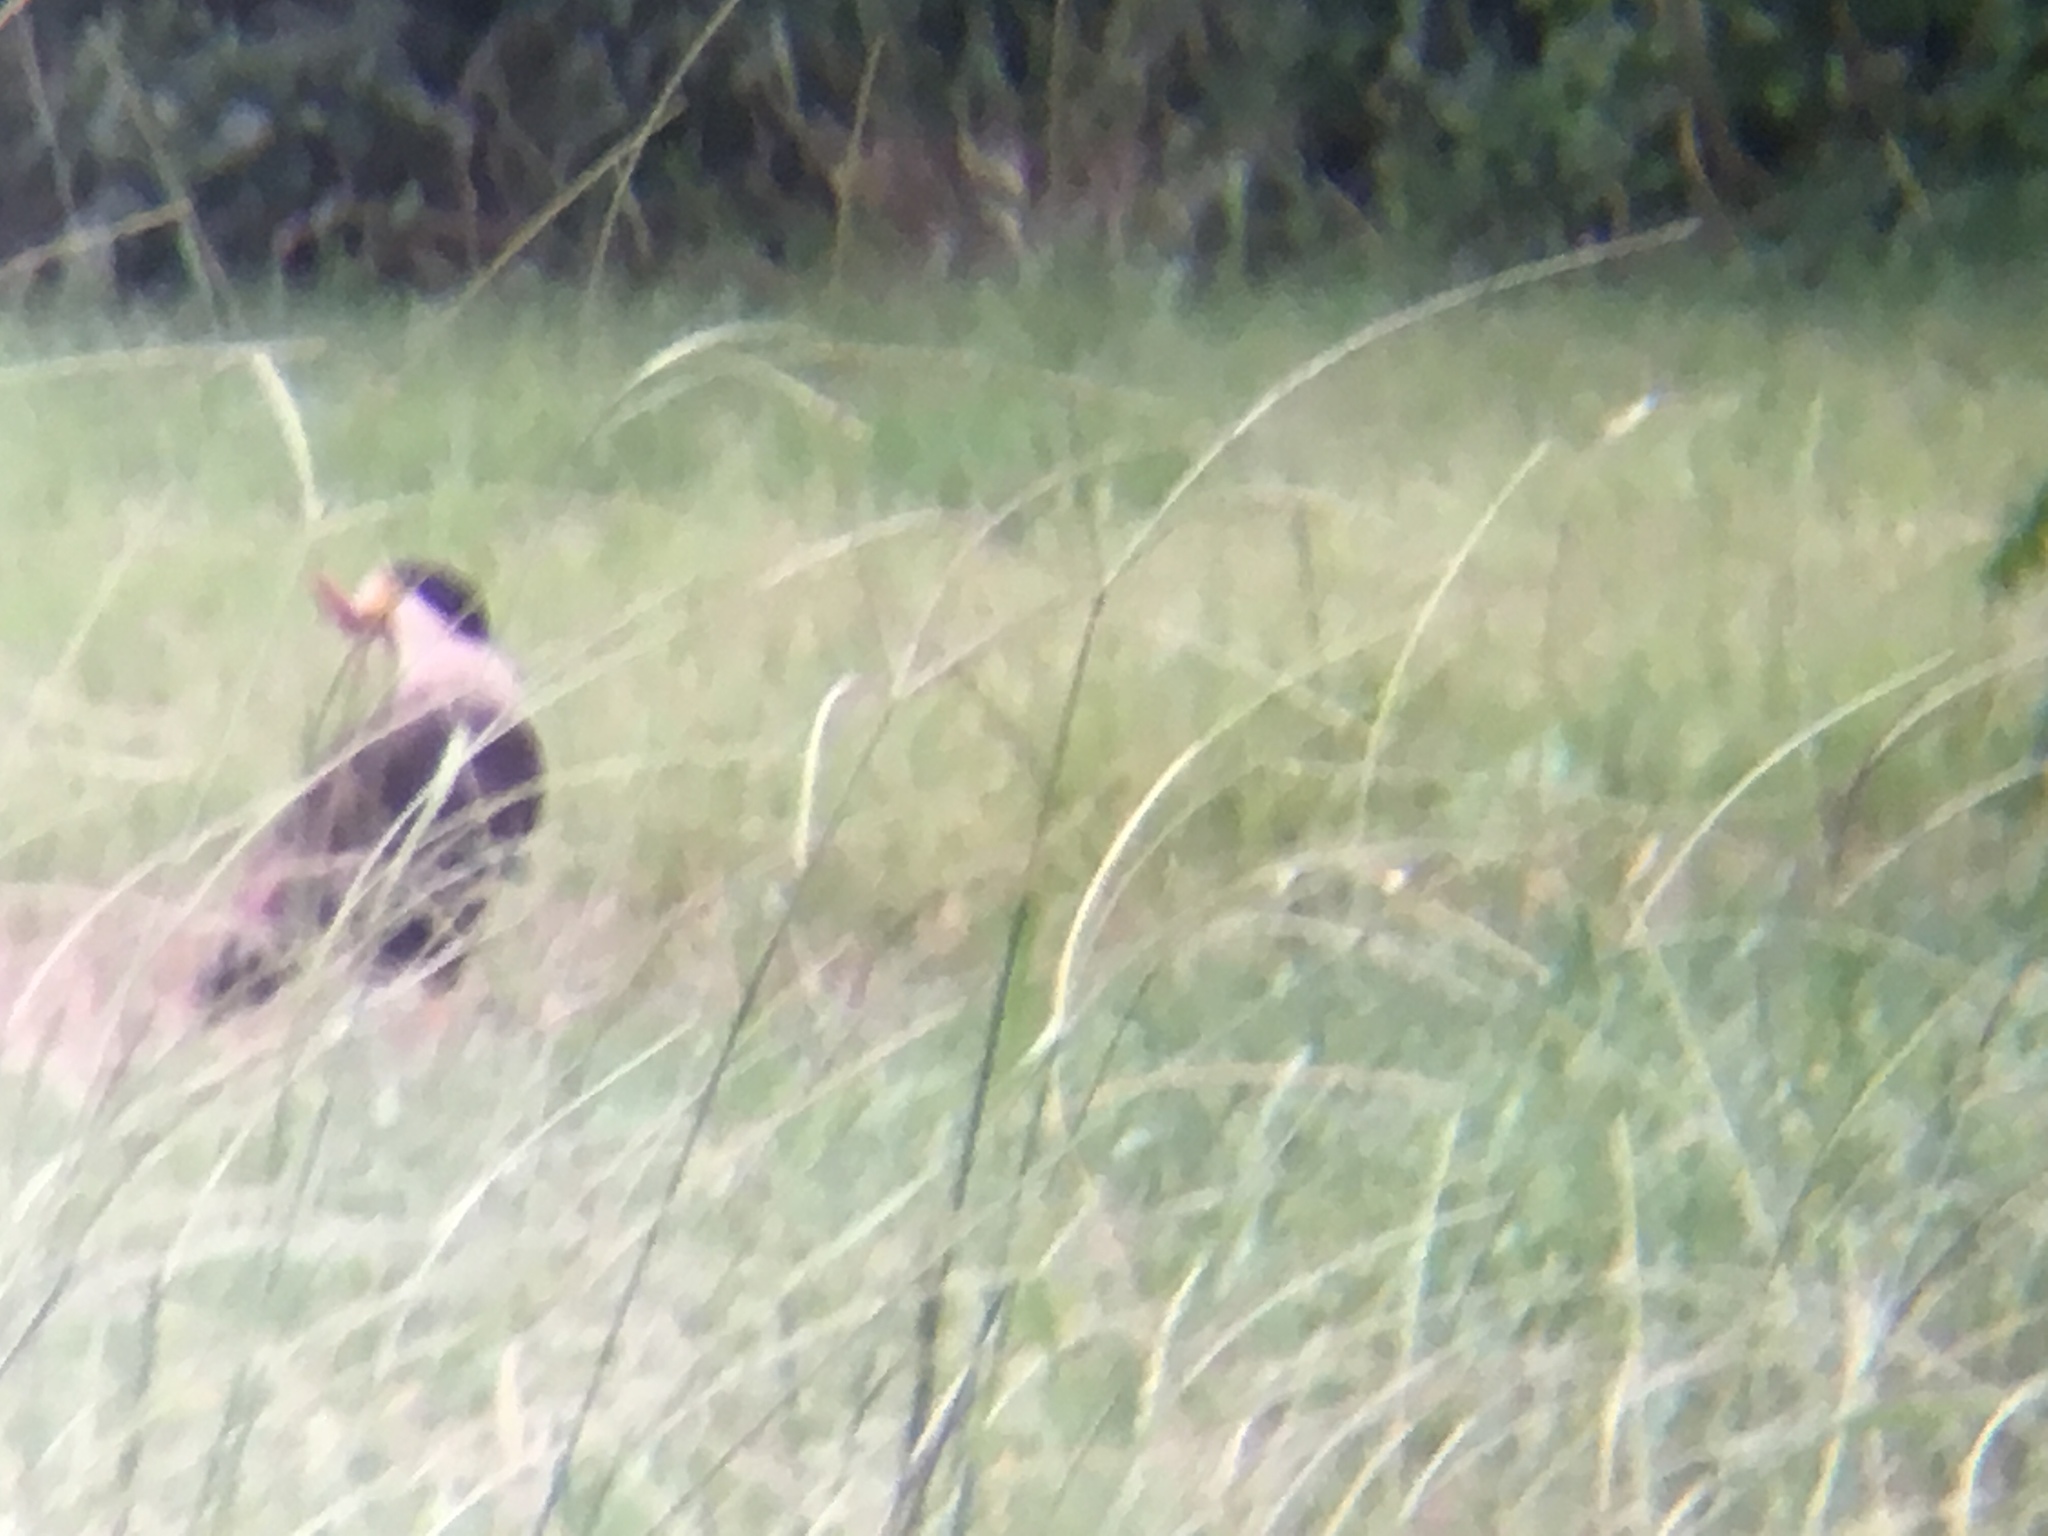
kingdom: Animalia
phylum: Chordata
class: Aves
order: Falconiformes
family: Falconidae
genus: Caracara
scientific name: Caracara plancus
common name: Southern caracara
